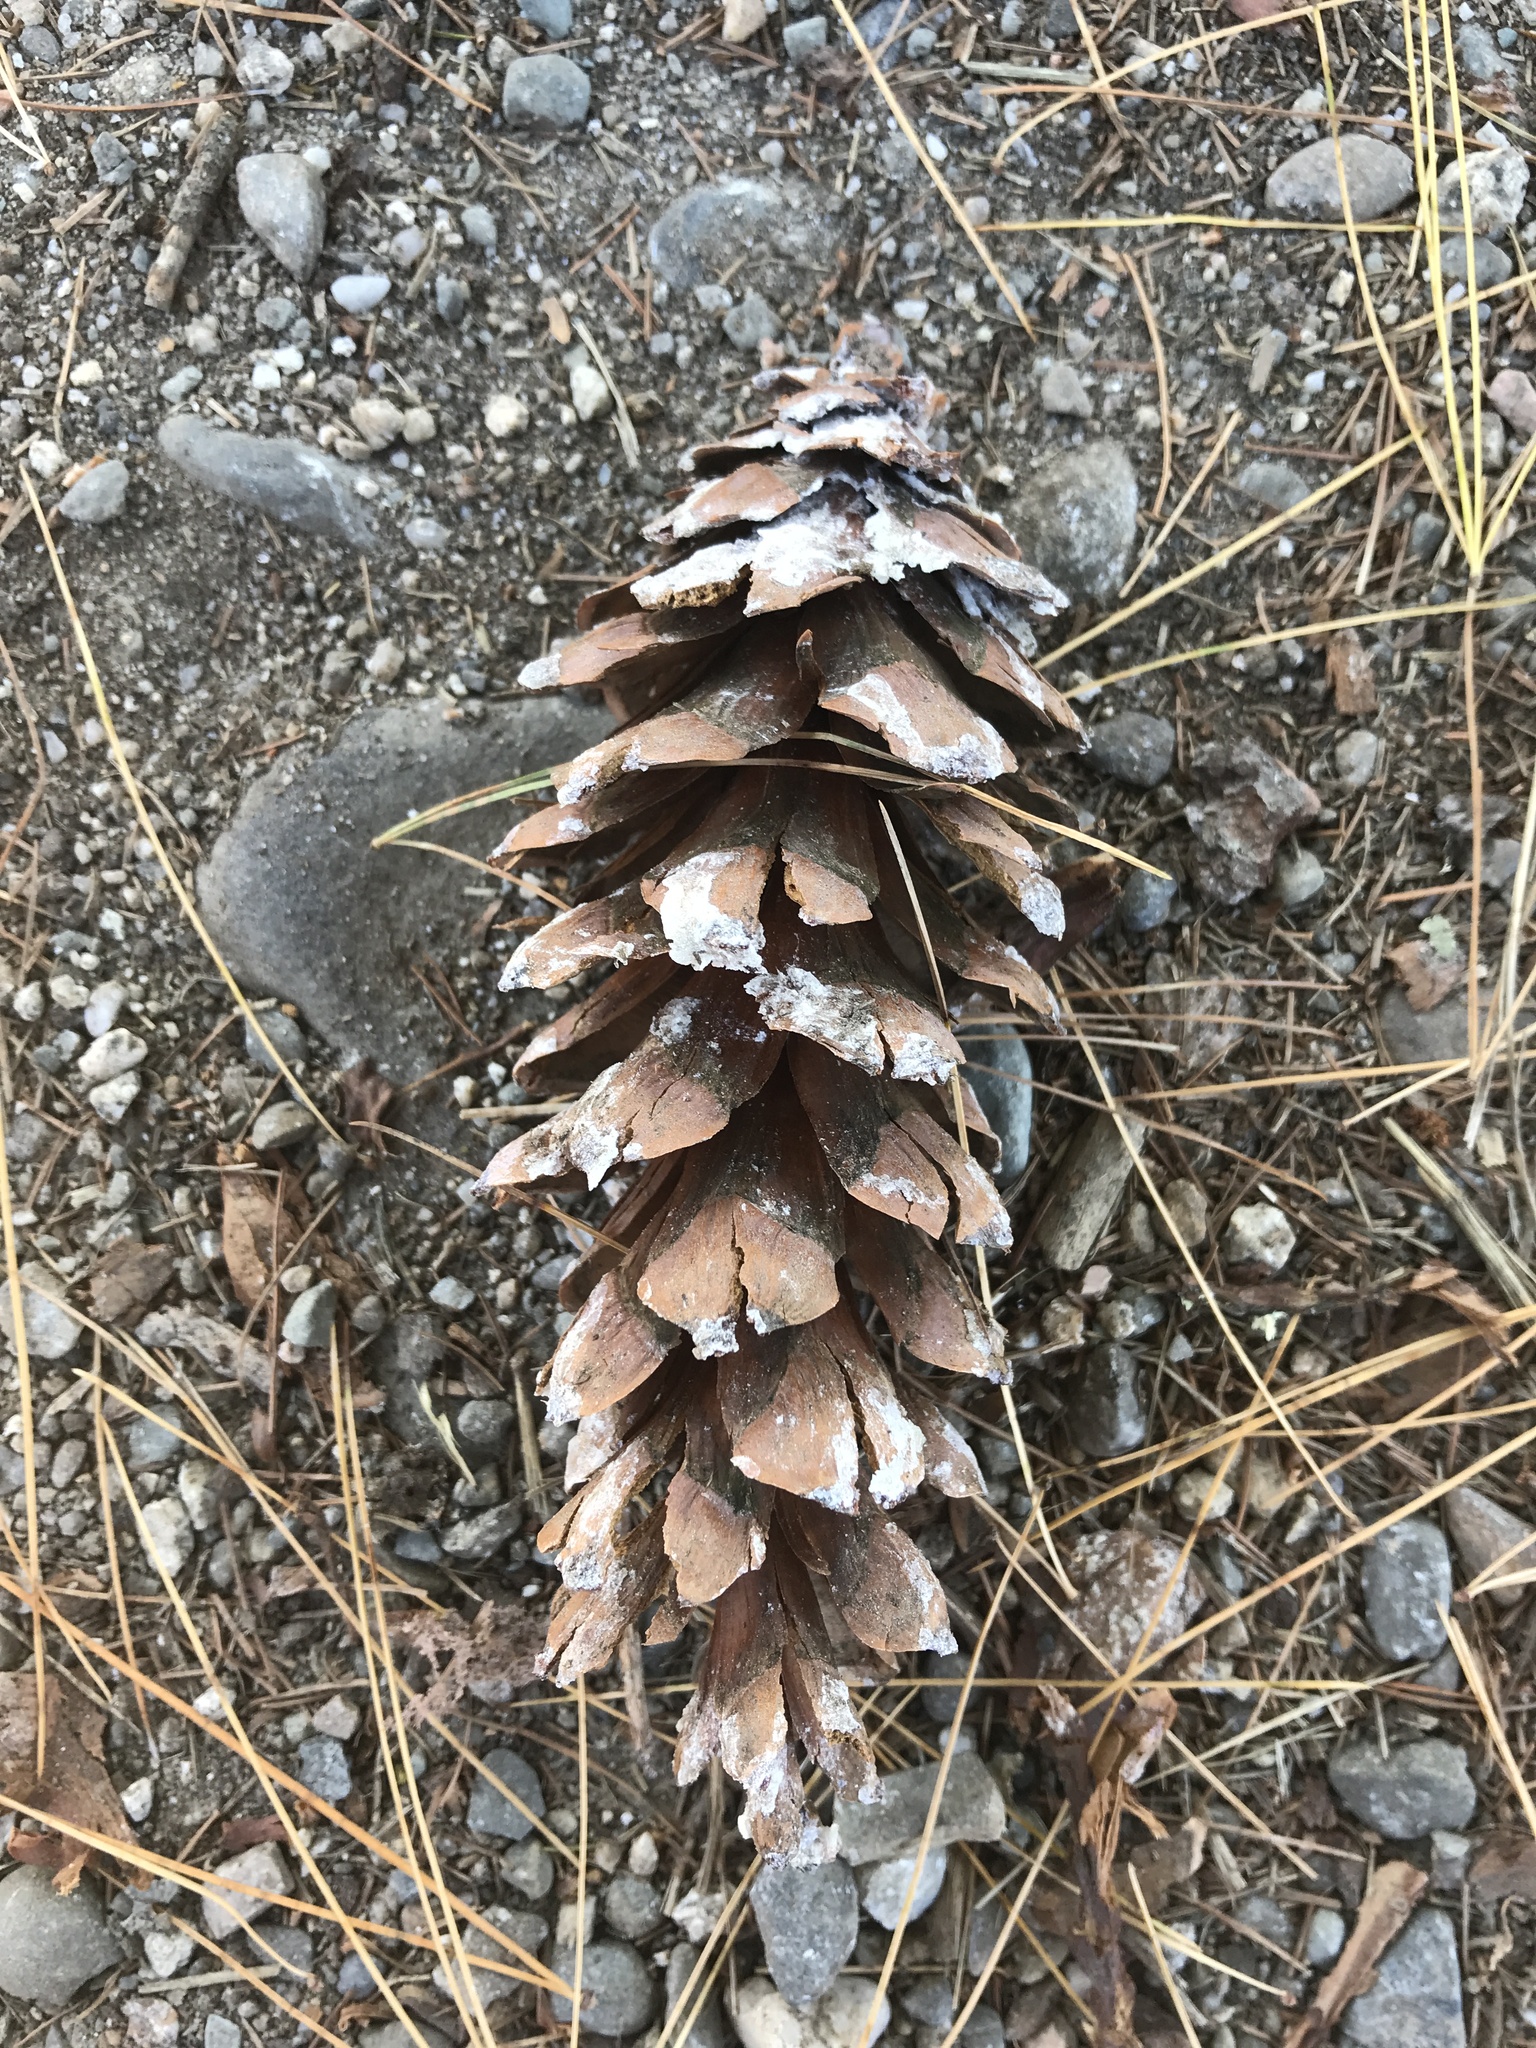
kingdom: Plantae
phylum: Tracheophyta
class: Pinopsida
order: Pinales
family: Pinaceae
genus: Pinus
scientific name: Pinus strobus
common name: Weymouth pine
